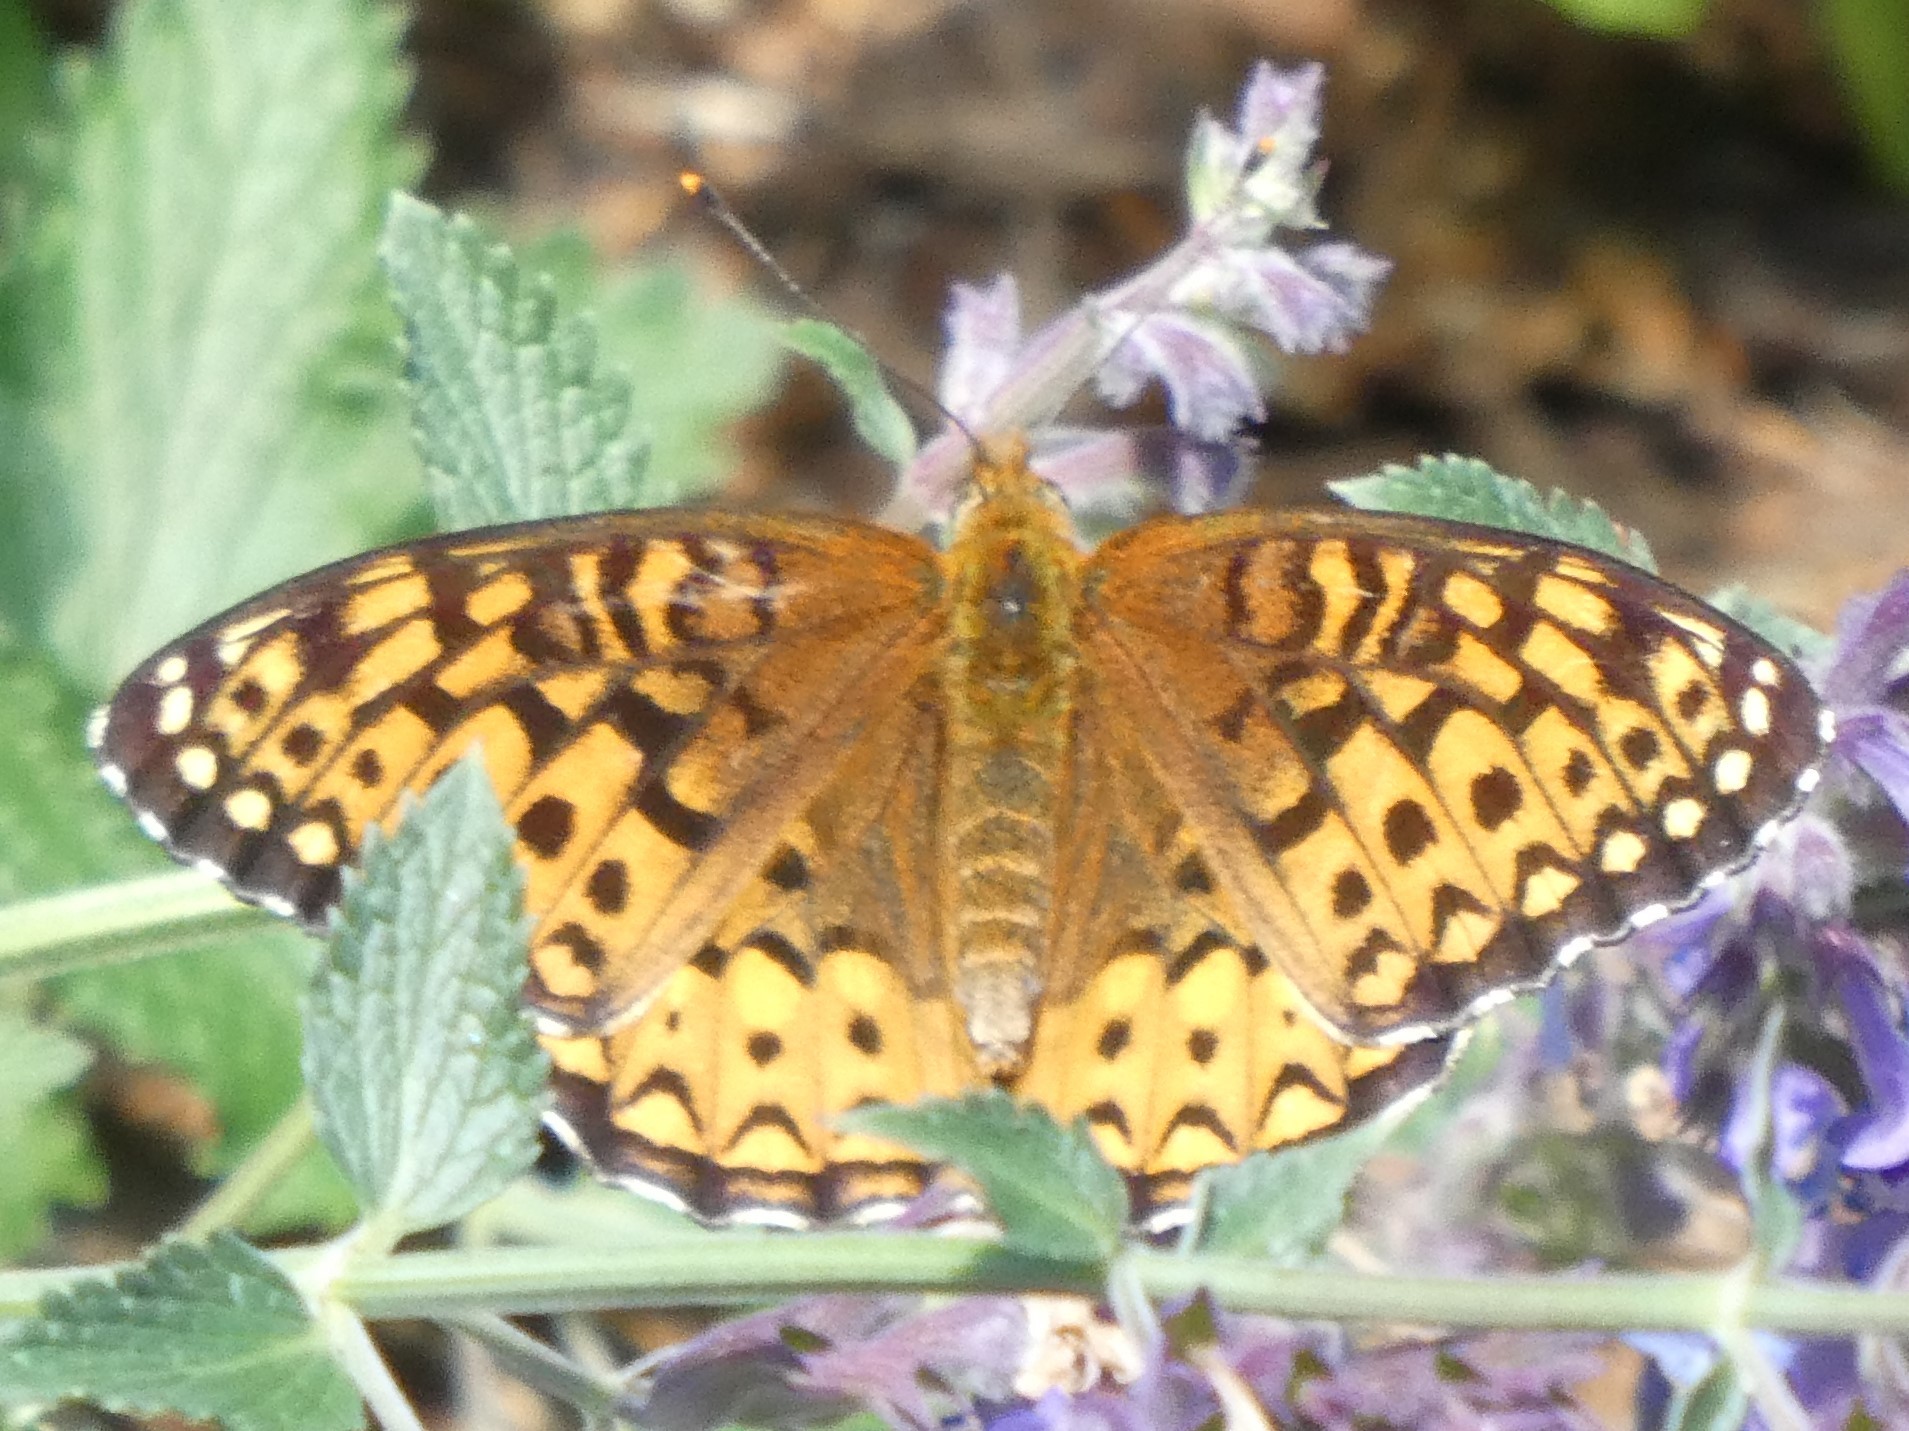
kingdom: Animalia
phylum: Arthropoda
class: Insecta
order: Lepidoptera
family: Nymphalidae
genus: Speyeria
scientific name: Speyeria atlantis
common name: Atlantis fritillary
